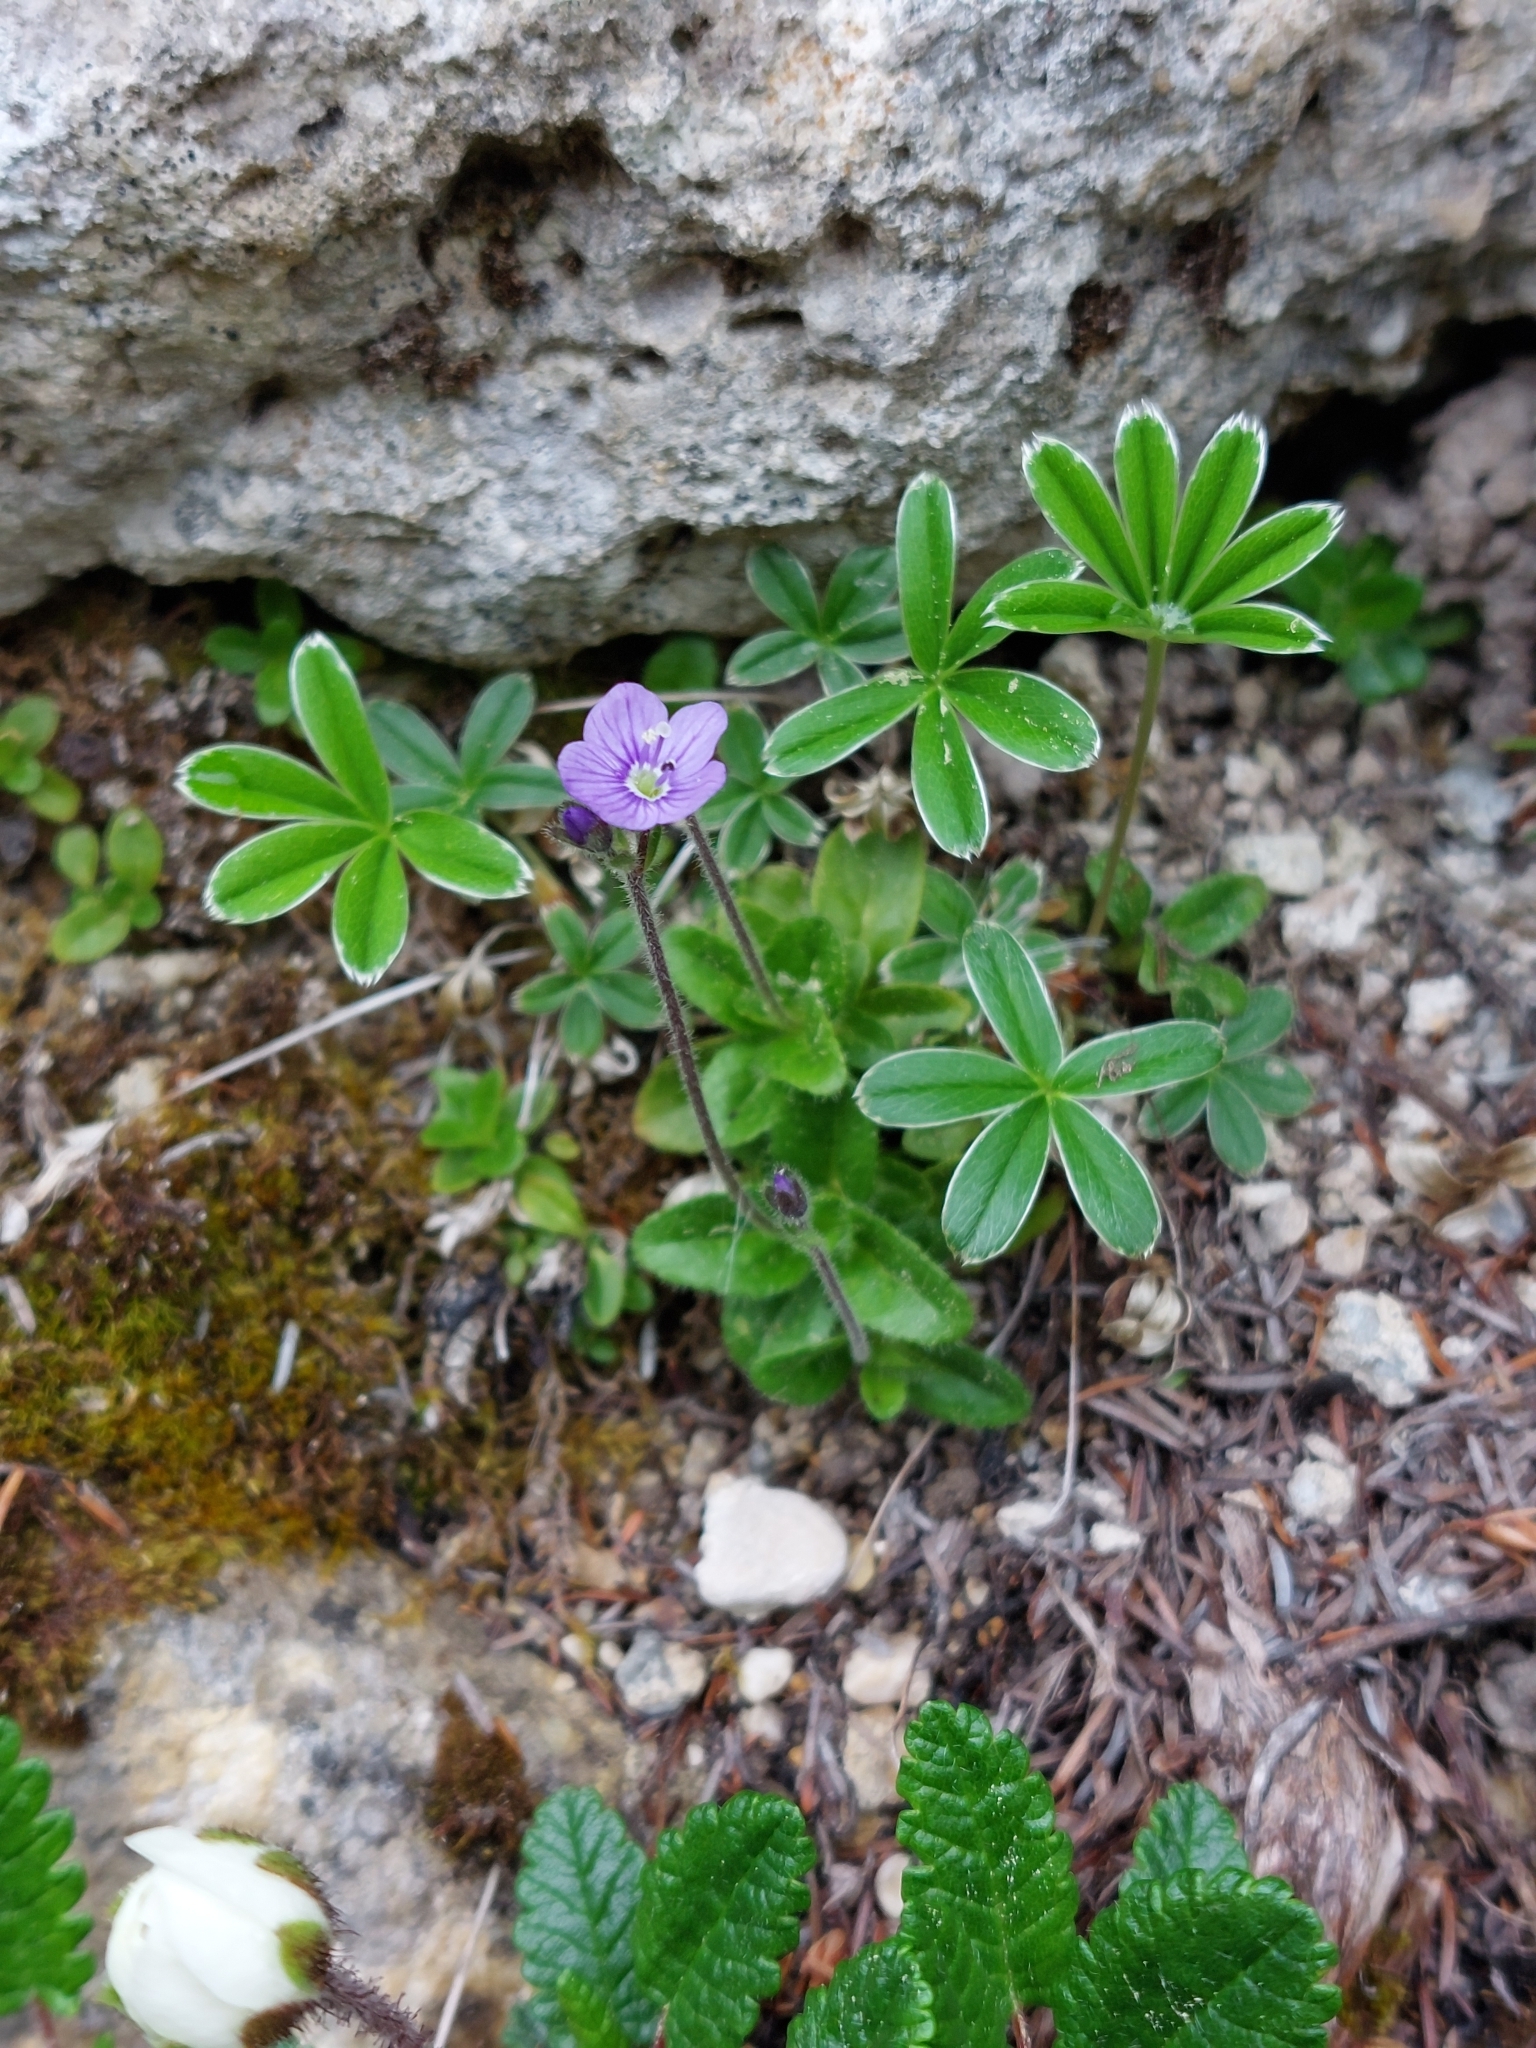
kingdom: Plantae
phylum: Tracheophyta
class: Magnoliopsida
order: Lamiales
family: Plantaginaceae
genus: Veronica
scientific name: Veronica aphylla
